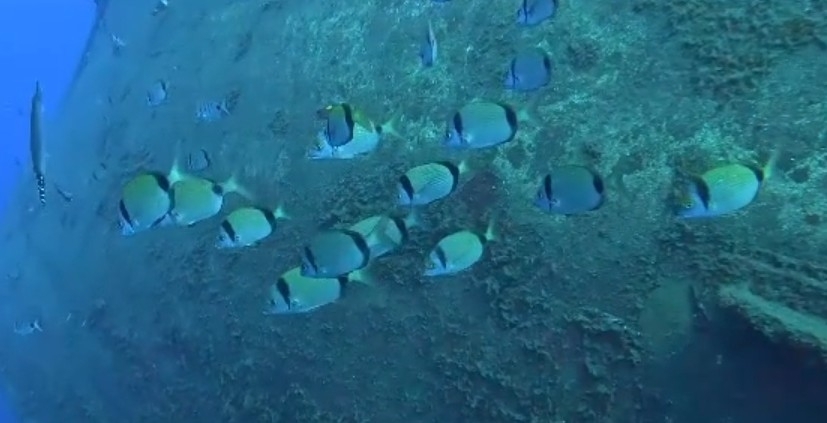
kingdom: Animalia
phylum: Chordata
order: Perciformes
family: Sparidae
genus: Diplodus
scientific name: Diplodus vulgaris
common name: Common two-banded seabream
